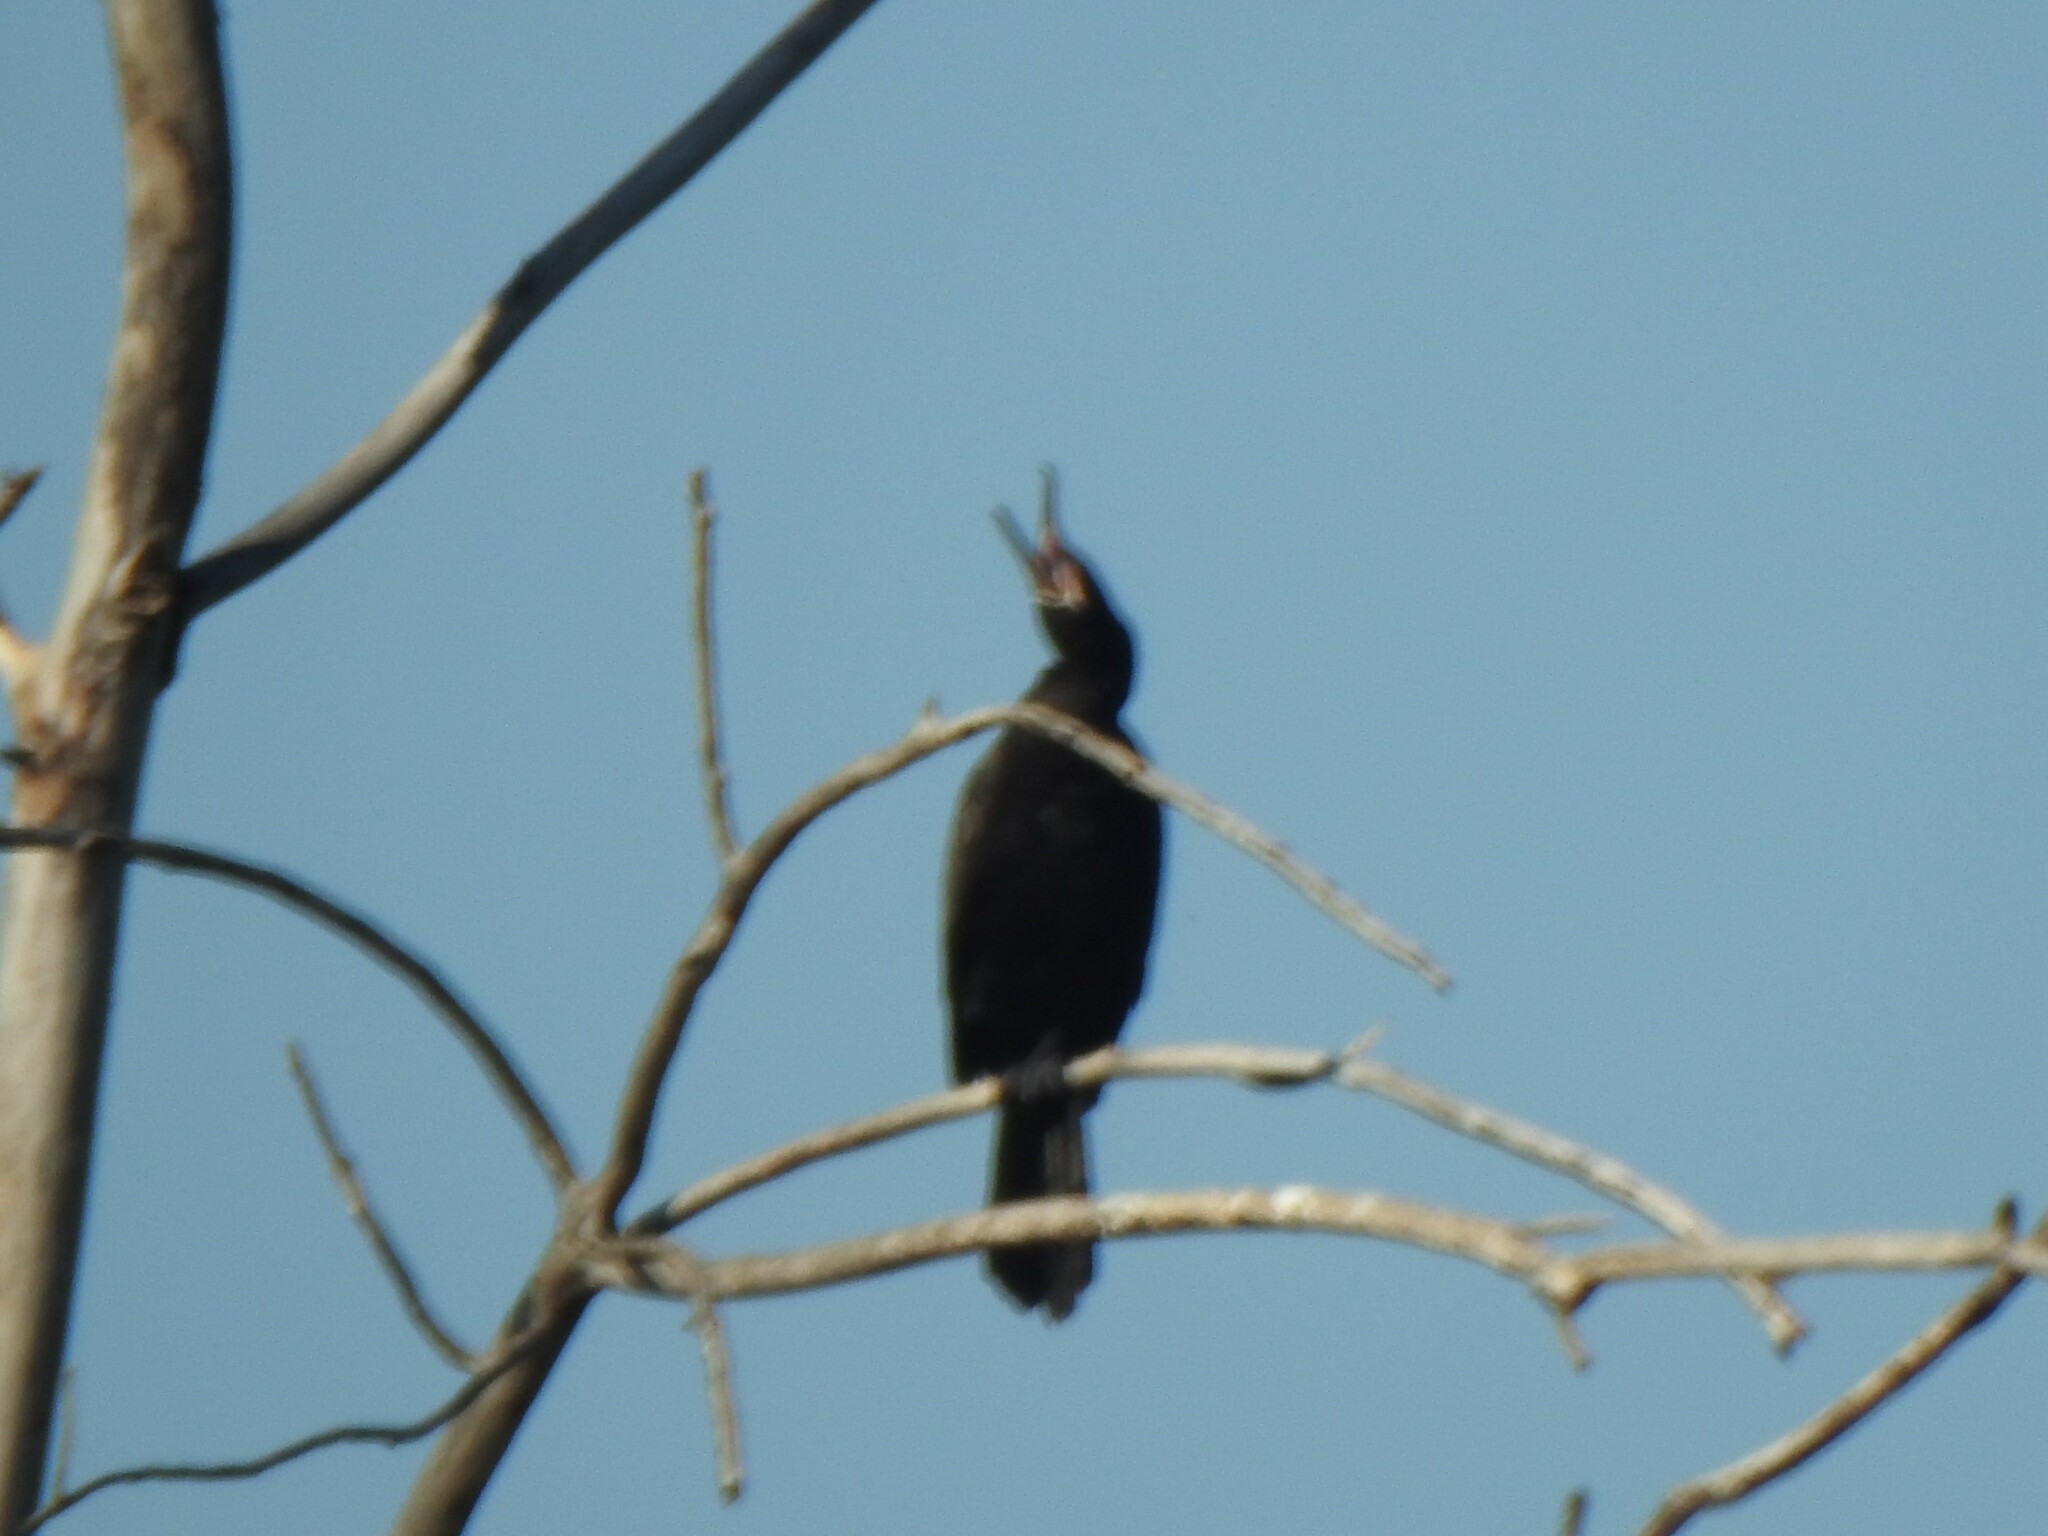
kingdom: Animalia
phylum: Chordata
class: Aves
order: Suliformes
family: Phalacrocoracidae
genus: Phalacrocorax
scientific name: Phalacrocorax brasilianus
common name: Neotropic cormorant
